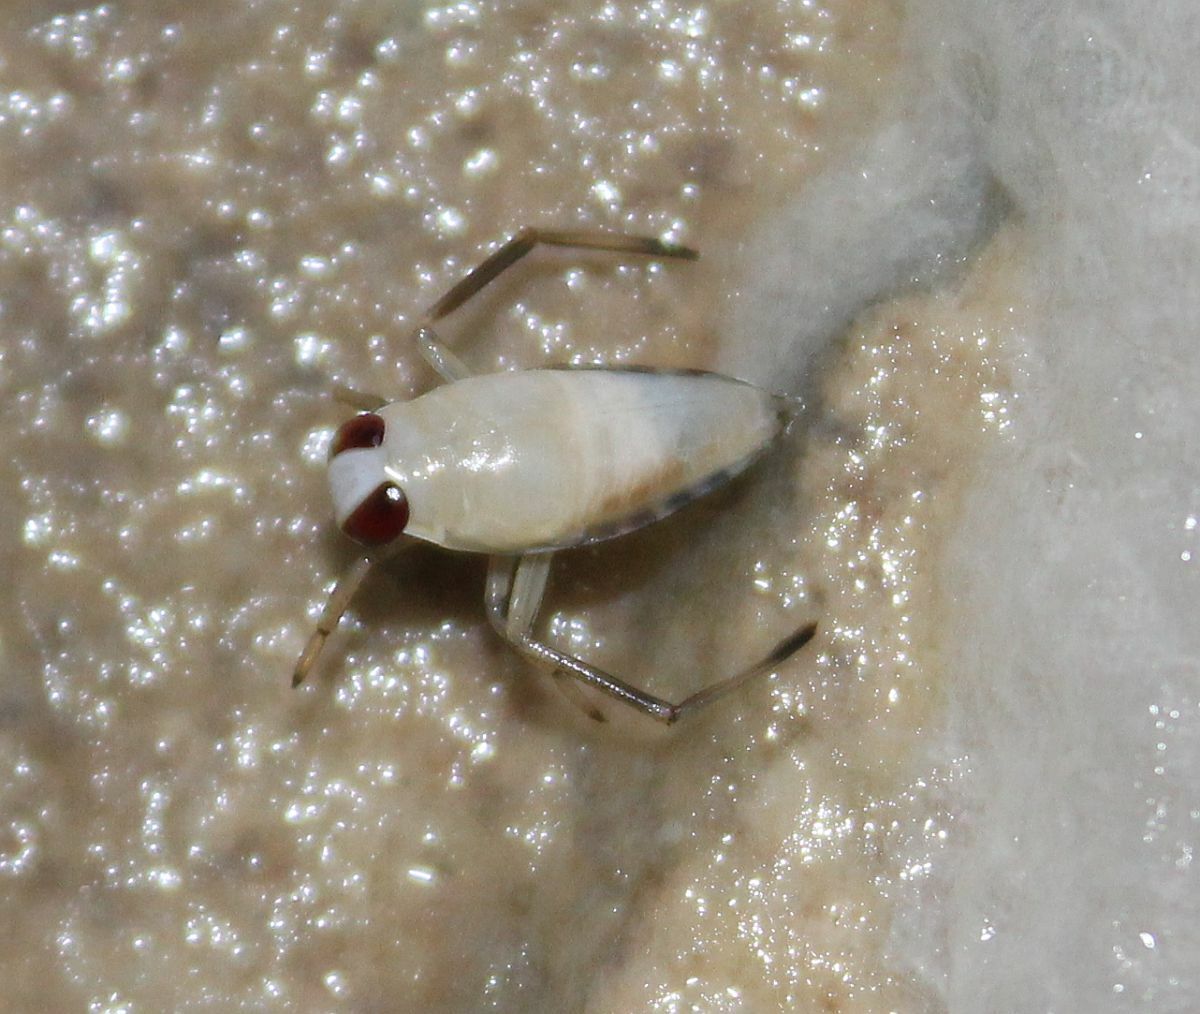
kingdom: Animalia
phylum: Arthropoda
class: Insecta
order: Hemiptera
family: Notonectidae
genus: Notonecta
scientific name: Notonecta
